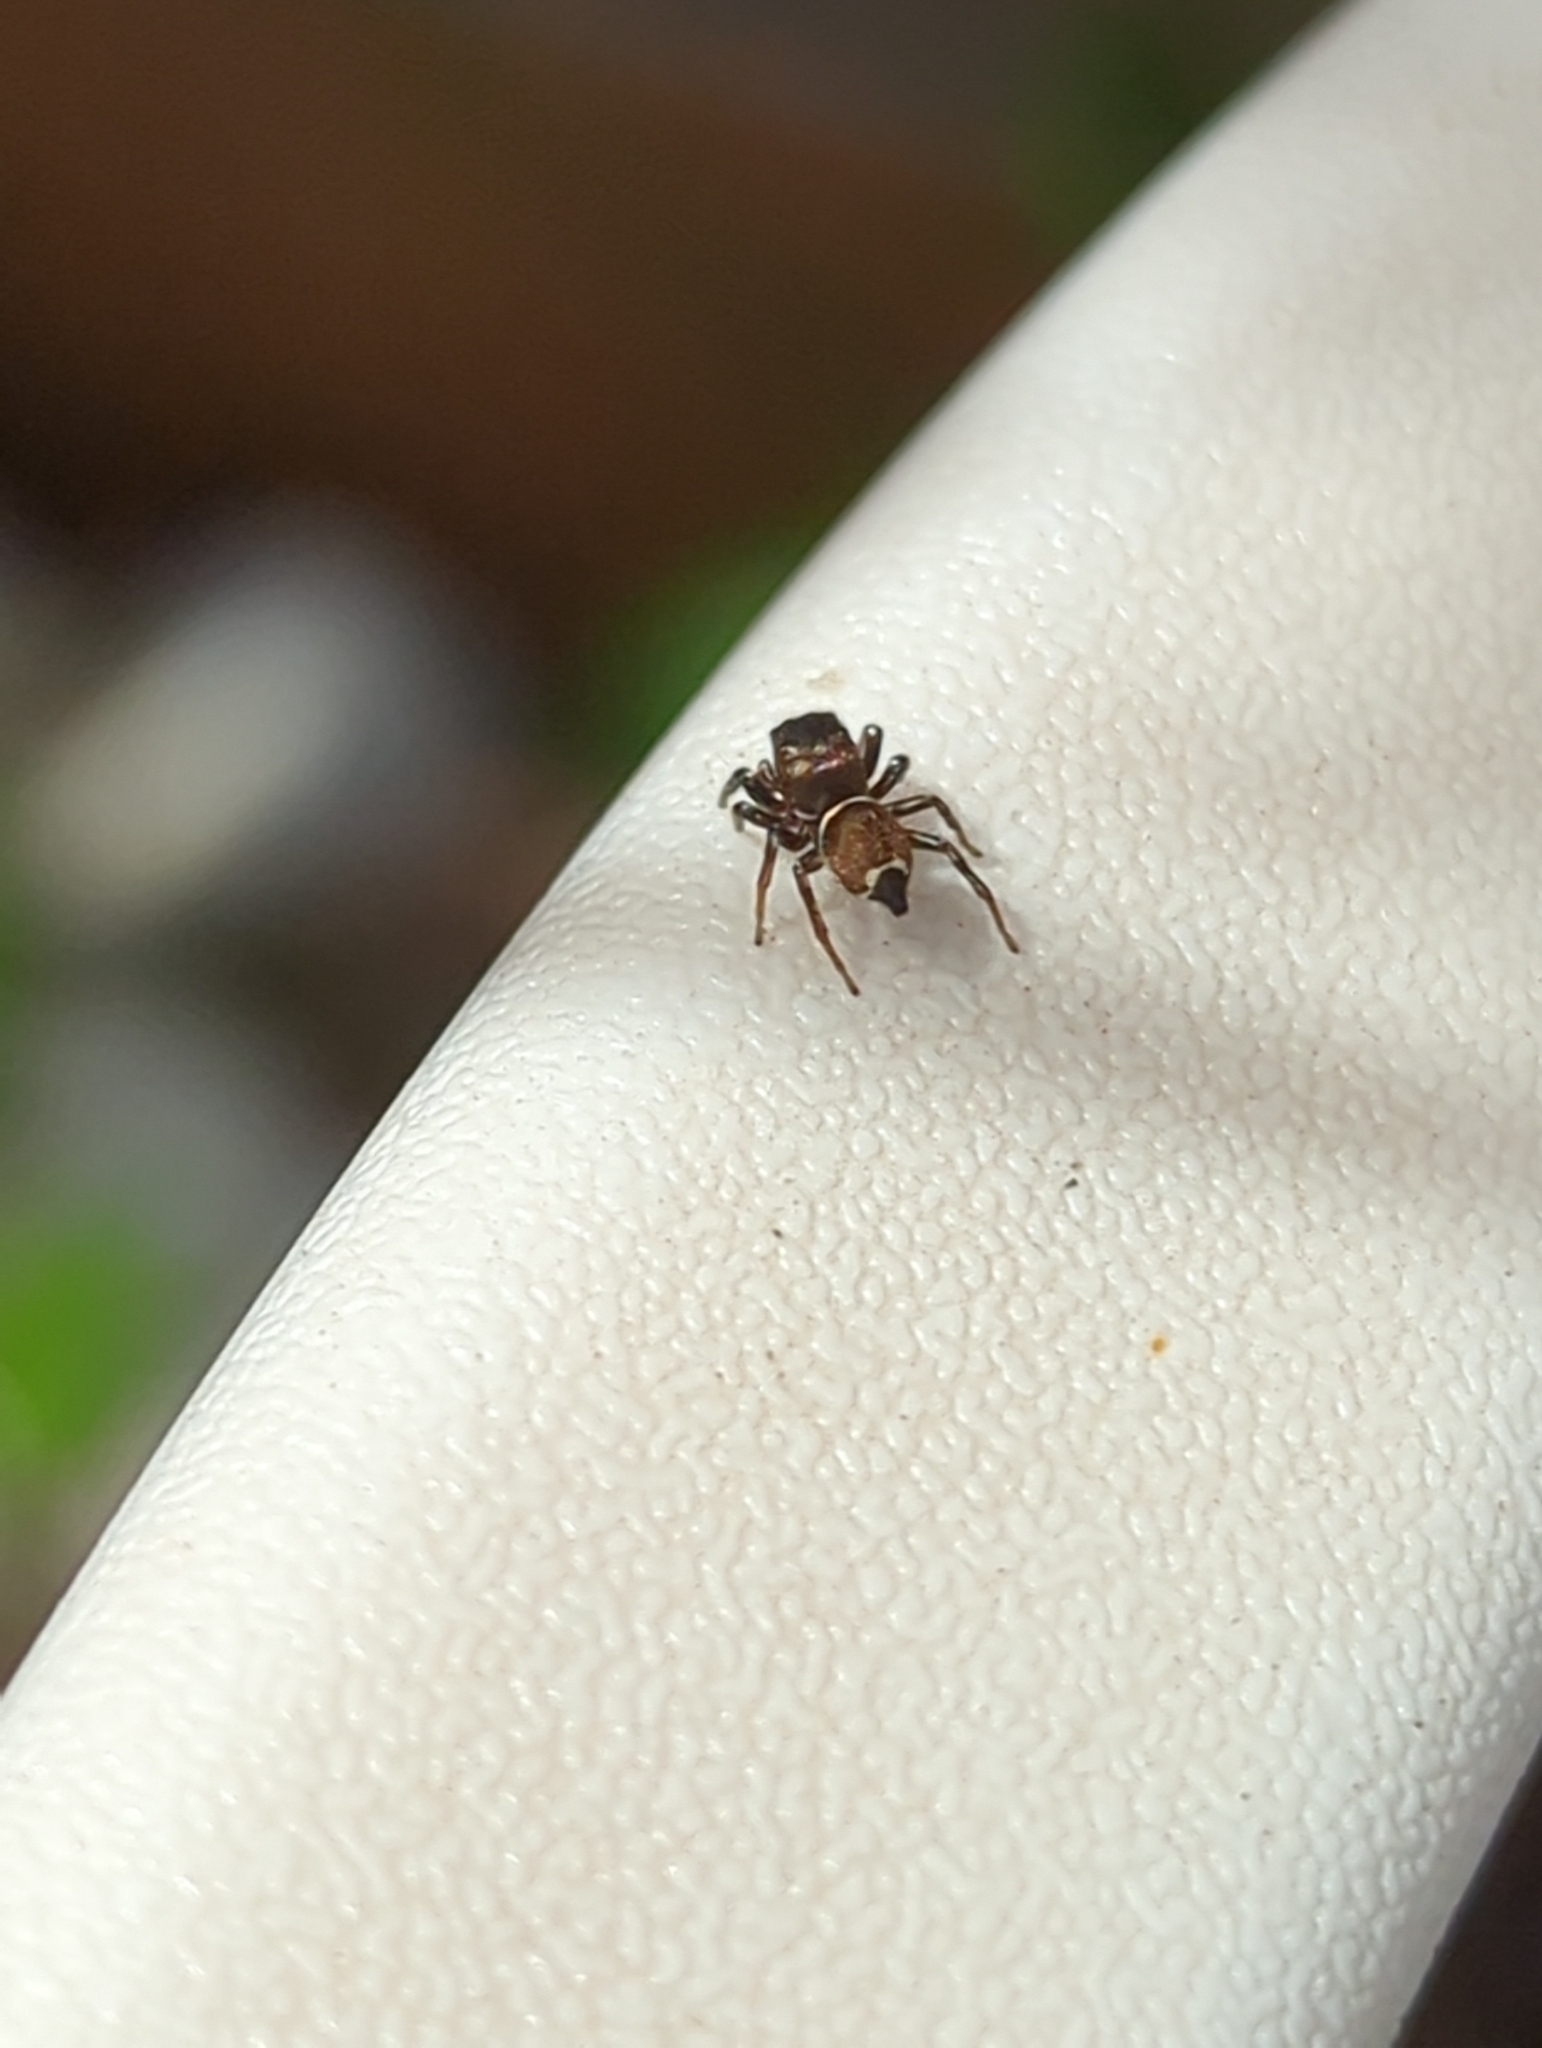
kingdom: Animalia
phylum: Arthropoda
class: Arachnida
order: Araneae
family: Salticidae
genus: Heliophanus
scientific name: Heliophanus tribulosus
